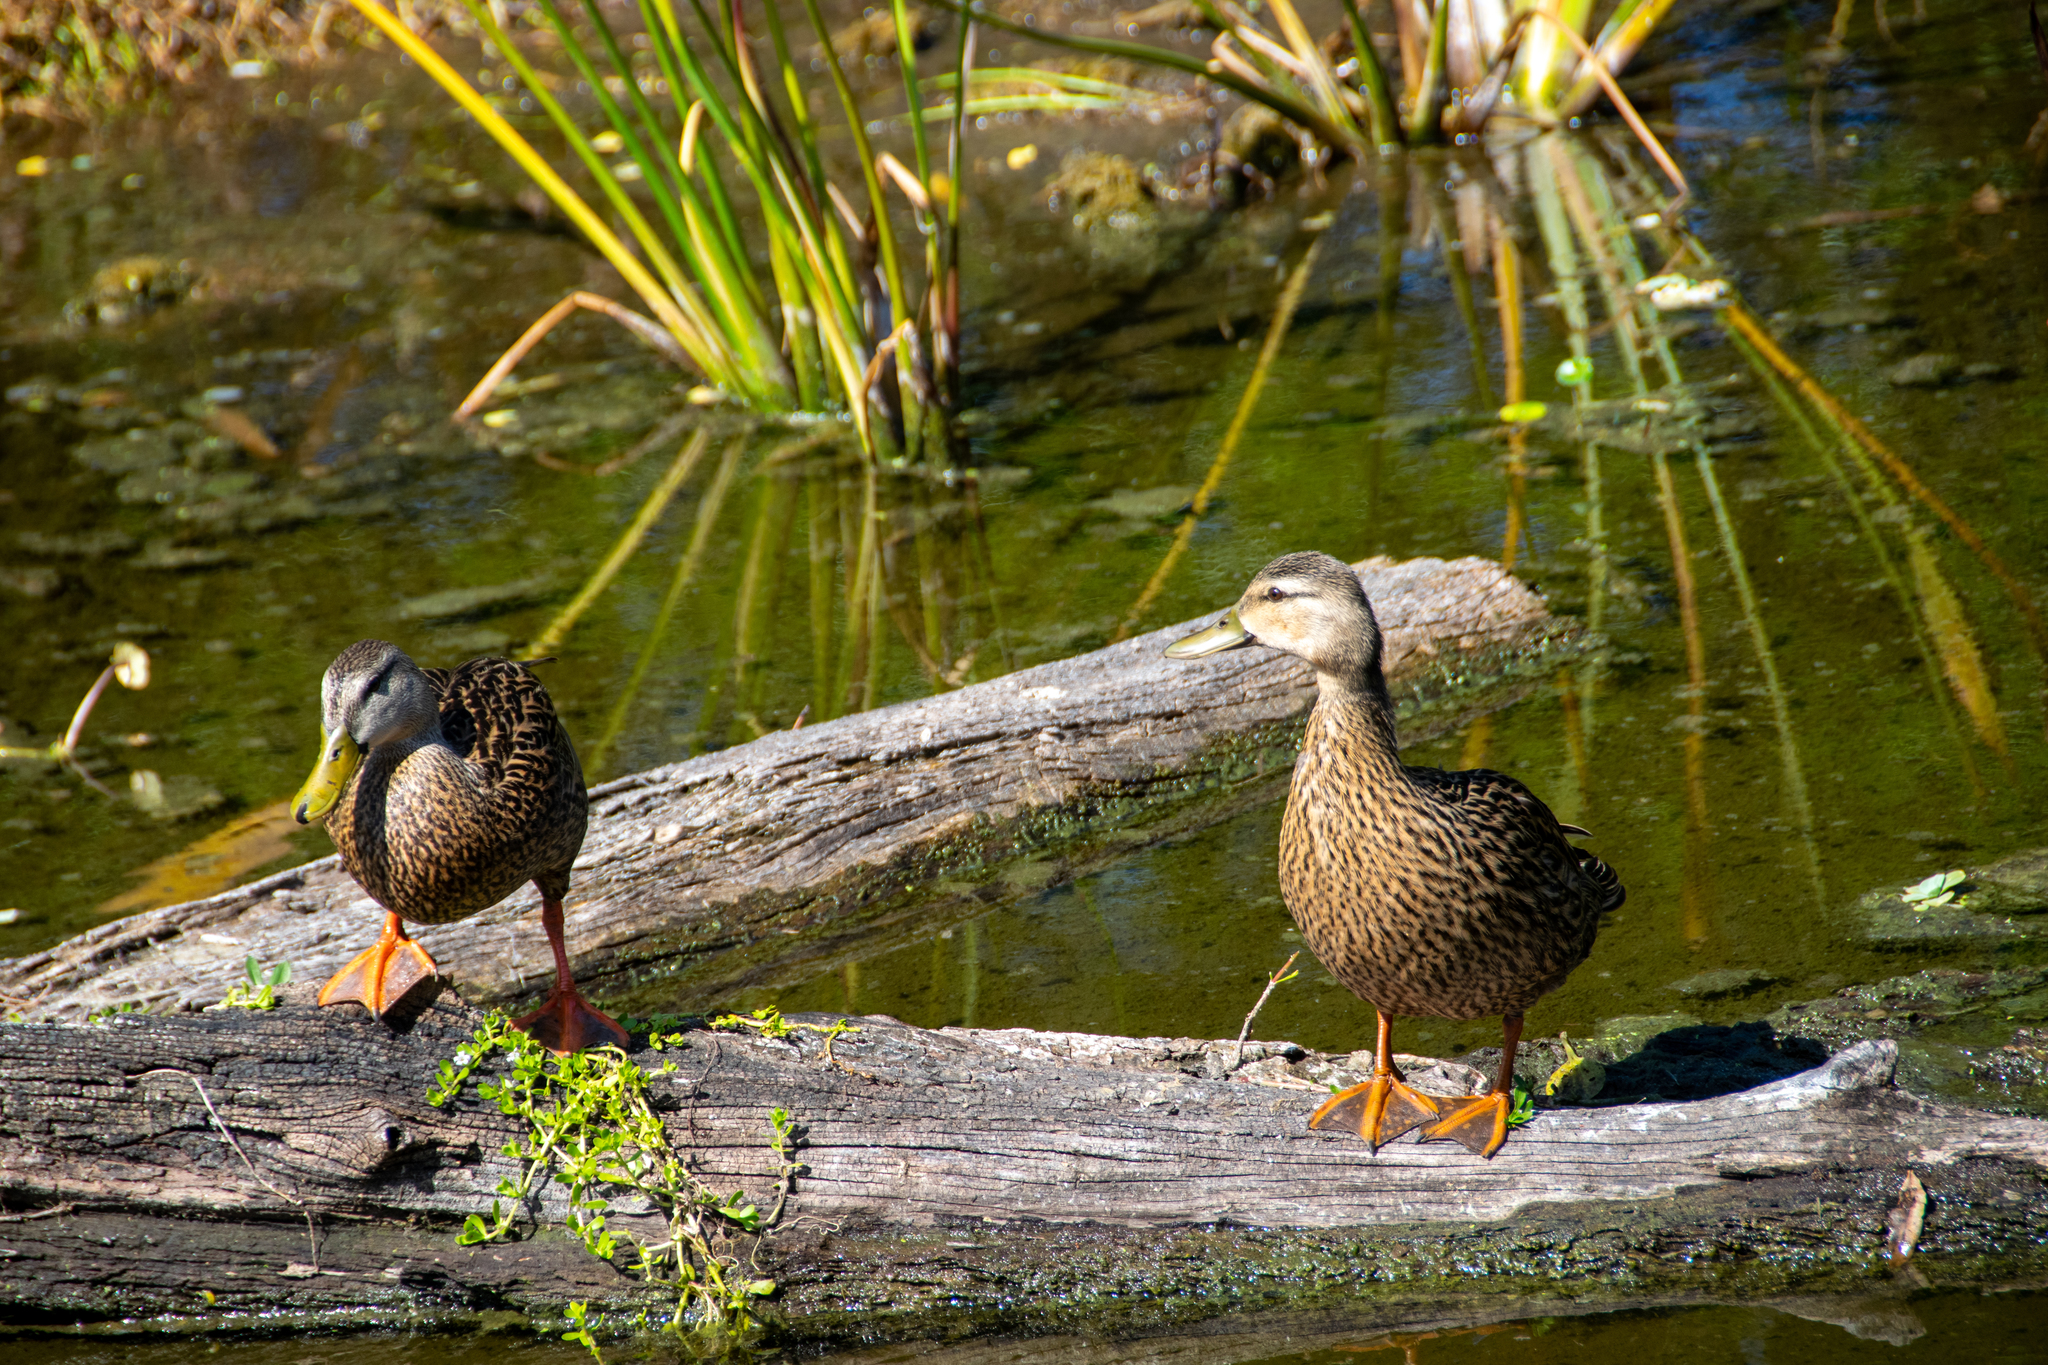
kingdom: Animalia
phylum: Chordata
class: Aves
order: Anseriformes
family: Anatidae
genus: Anas
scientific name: Anas fulvigula
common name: Mottled duck
